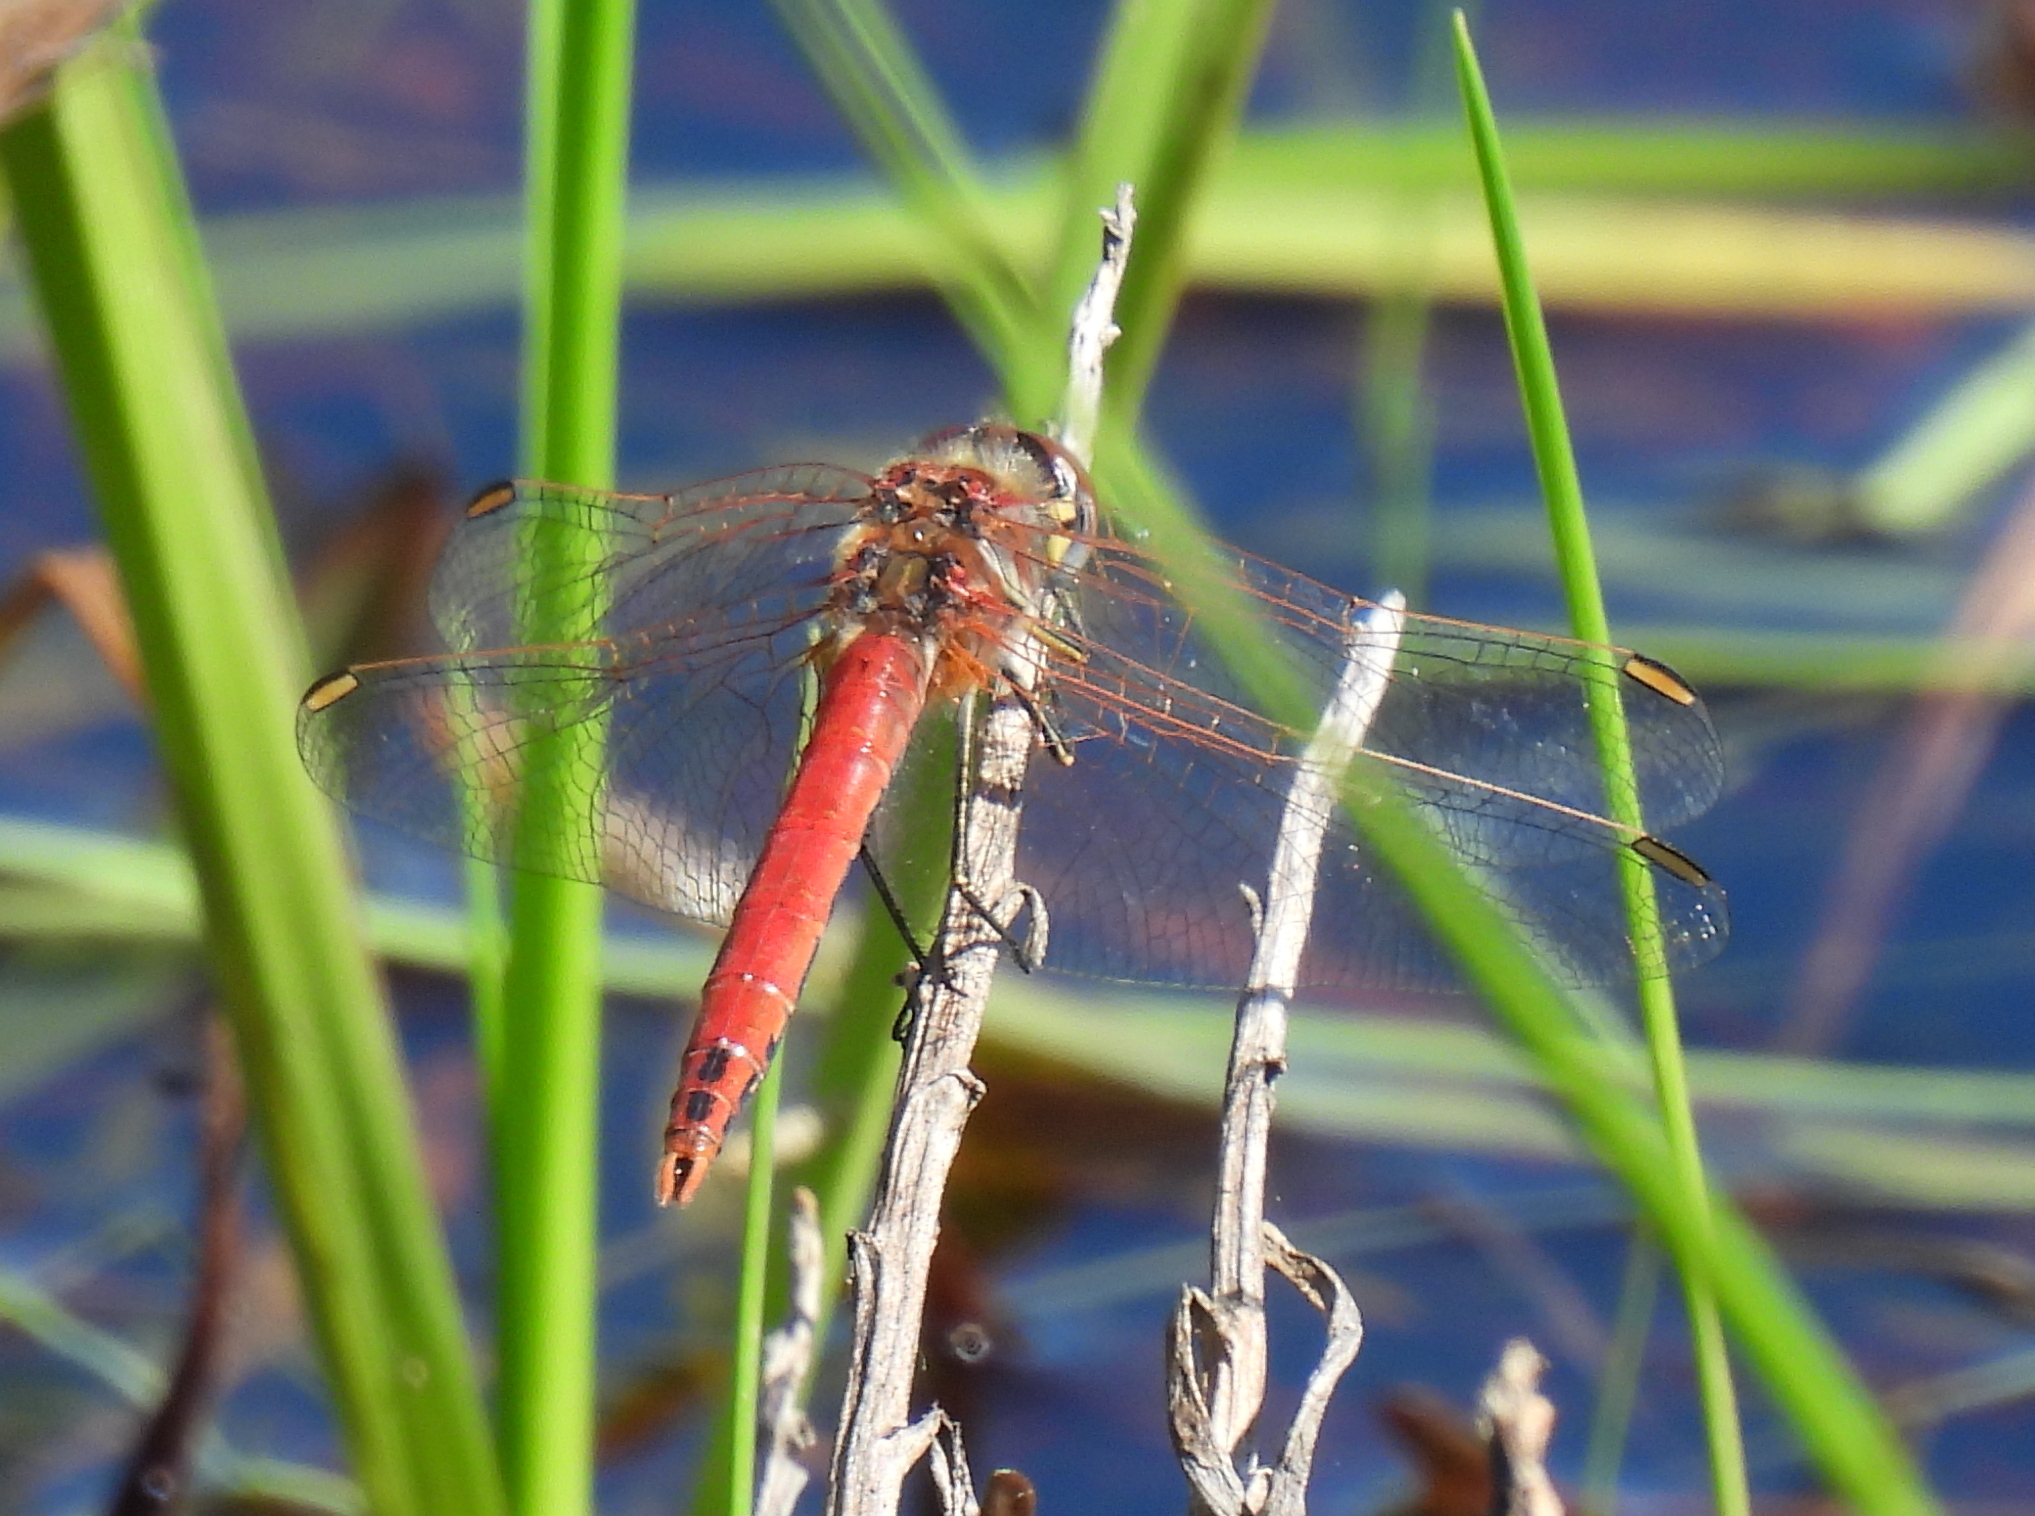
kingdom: Animalia
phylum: Arthropoda
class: Insecta
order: Odonata
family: Libellulidae
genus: Sympetrum
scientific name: Sympetrum fonscolombii
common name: Red-veined darter
